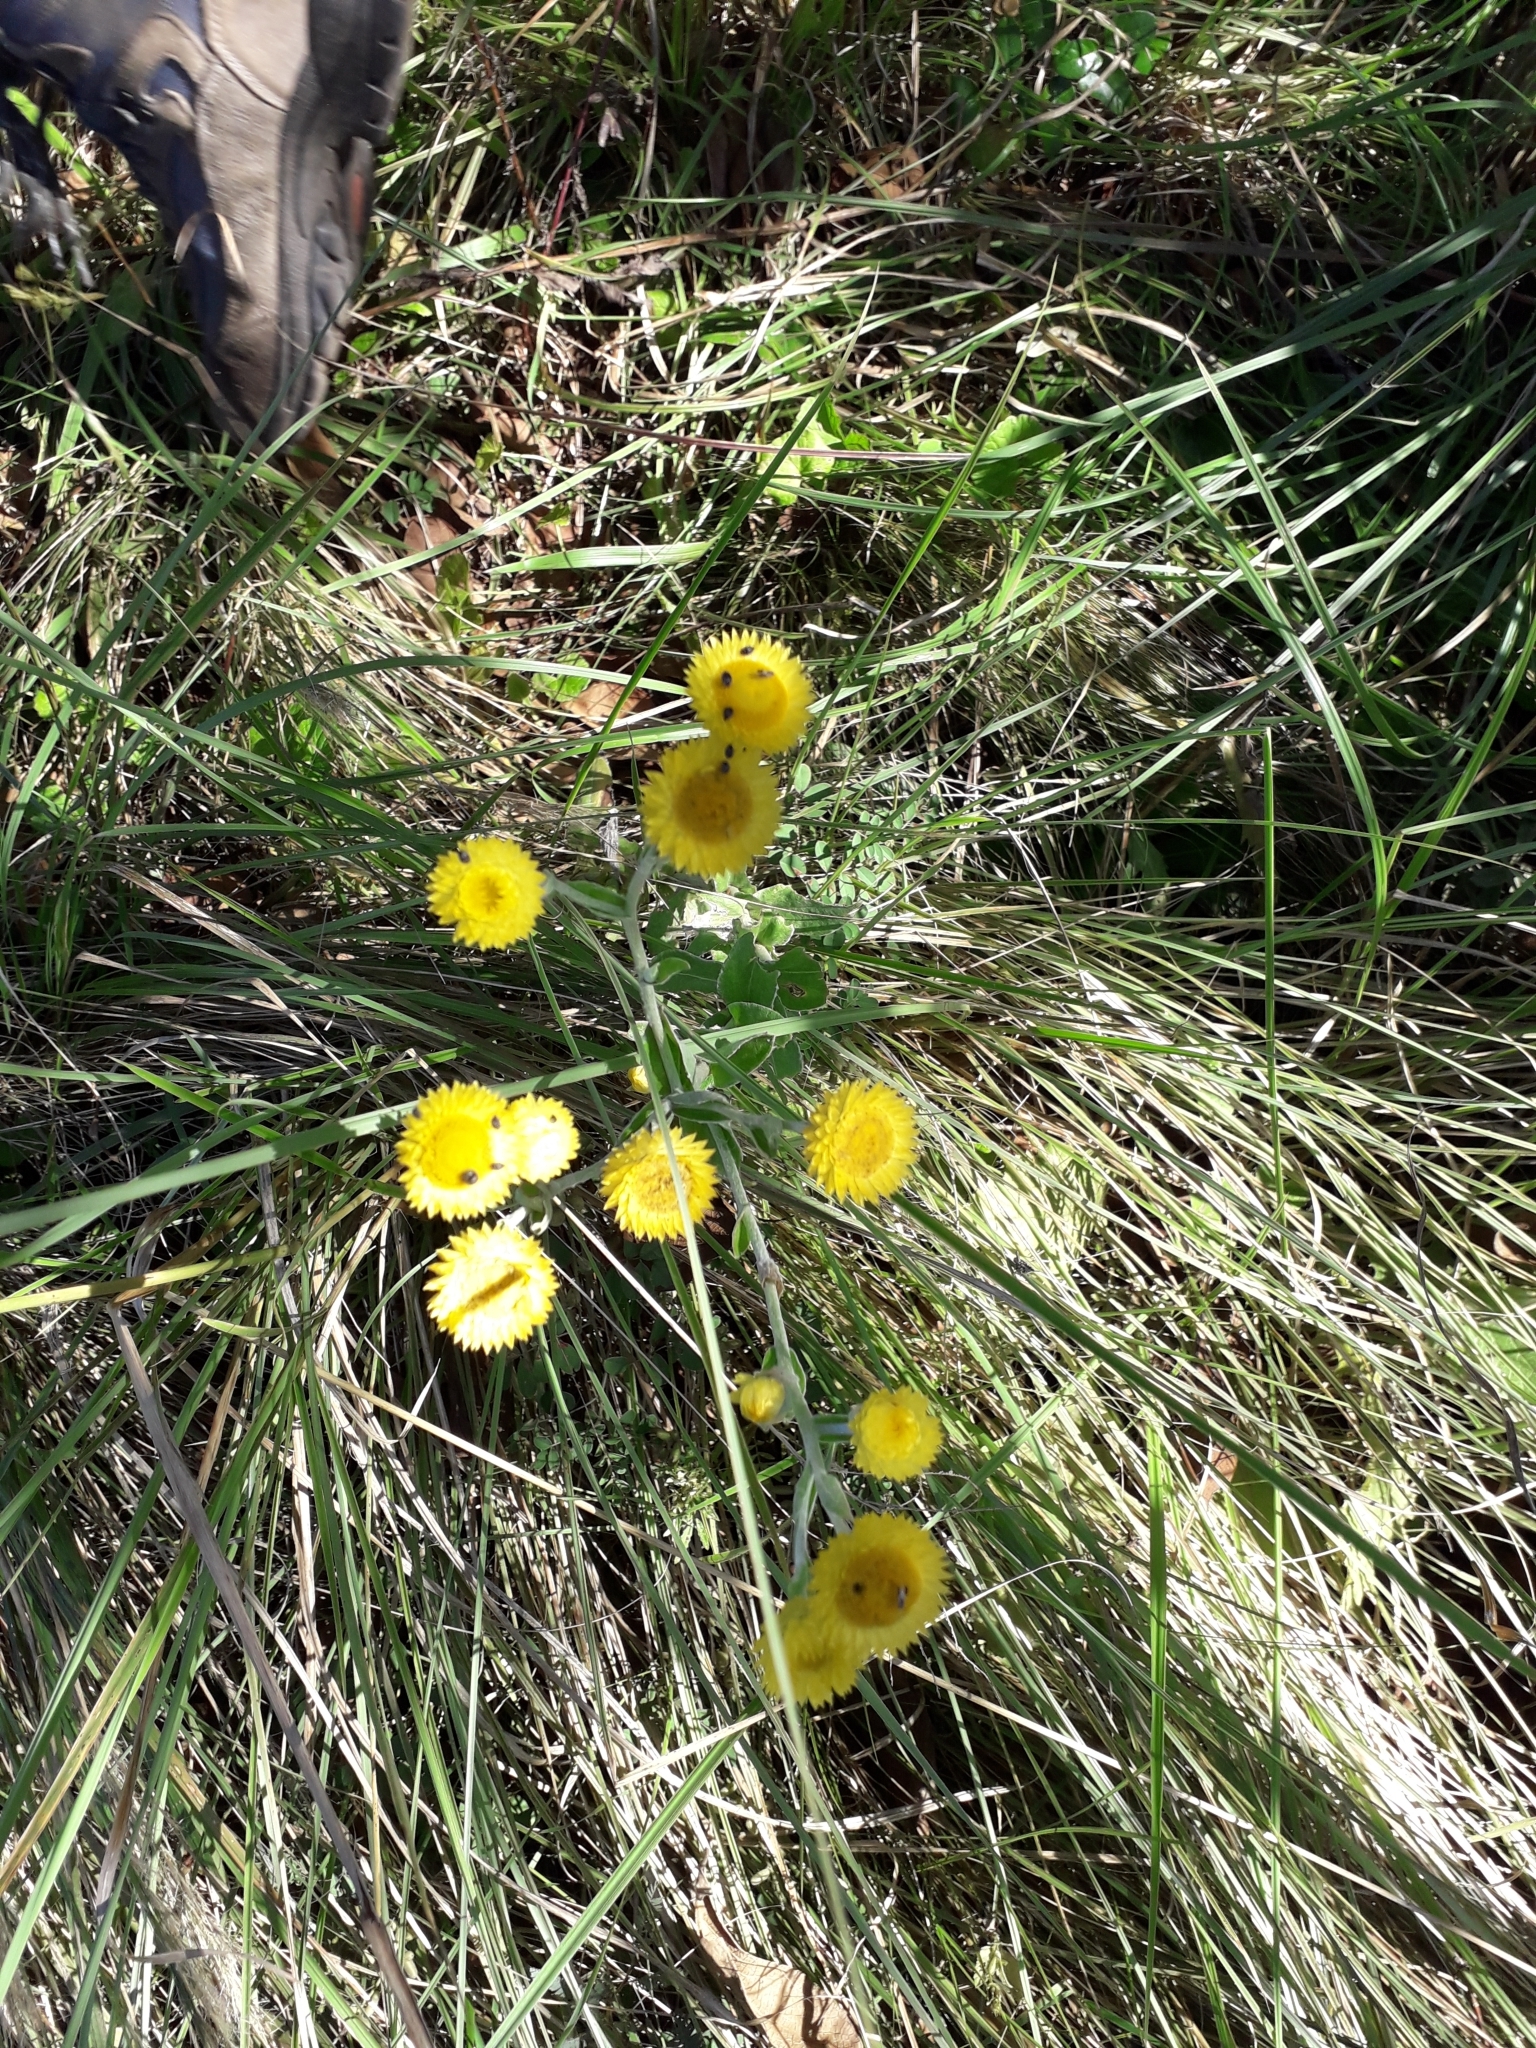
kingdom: Plantae
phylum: Tracheophyta
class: Magnoliopsida
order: Asterales
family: Asteraceae
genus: Helichrysum
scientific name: Helichrysum decorum
